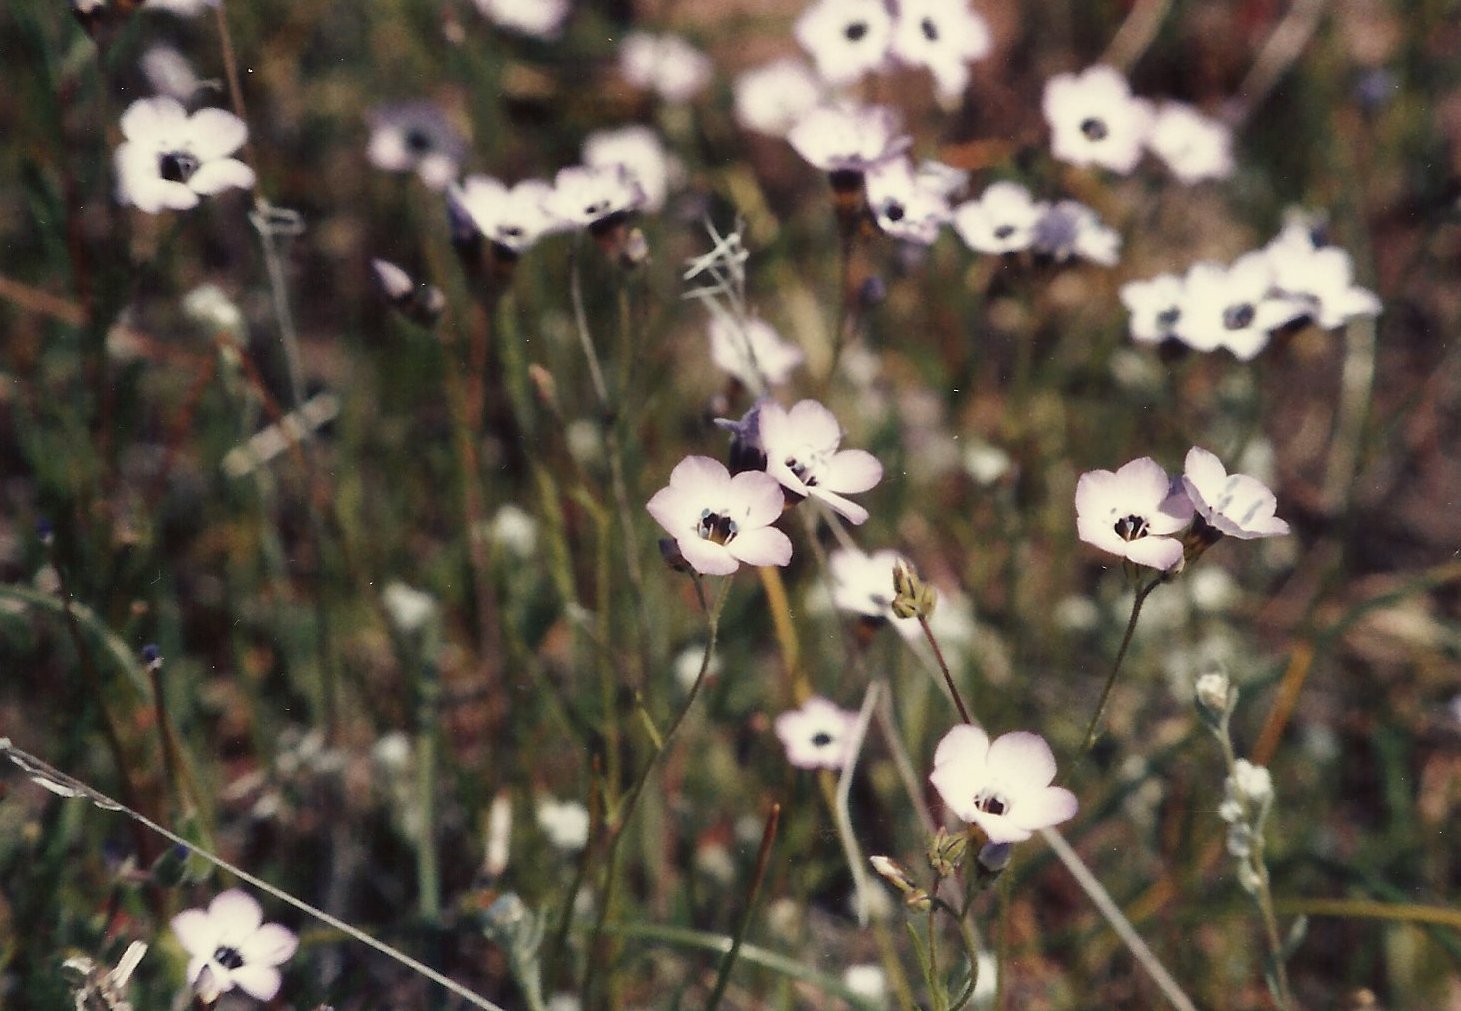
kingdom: Plantae
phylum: Tracheophyta
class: Magnoliopsida
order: Ericales
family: Polemoniaceae
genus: Gilia
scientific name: Gilia tricolor
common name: Bird's-eyes
